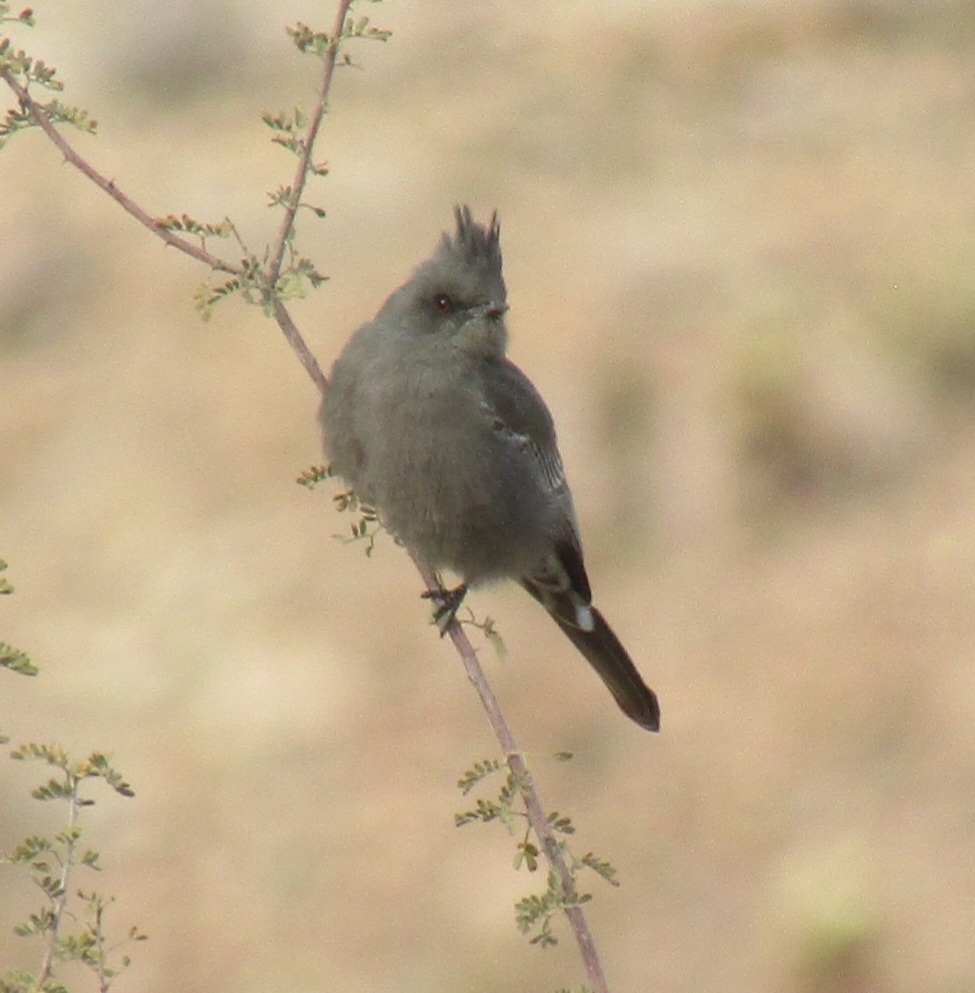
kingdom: Animalia
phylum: Chordata
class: Aves
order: Passeriformes
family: Ptilogonatidae
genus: Phainopepla
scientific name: Phainopepla nitens
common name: Phainopepla
